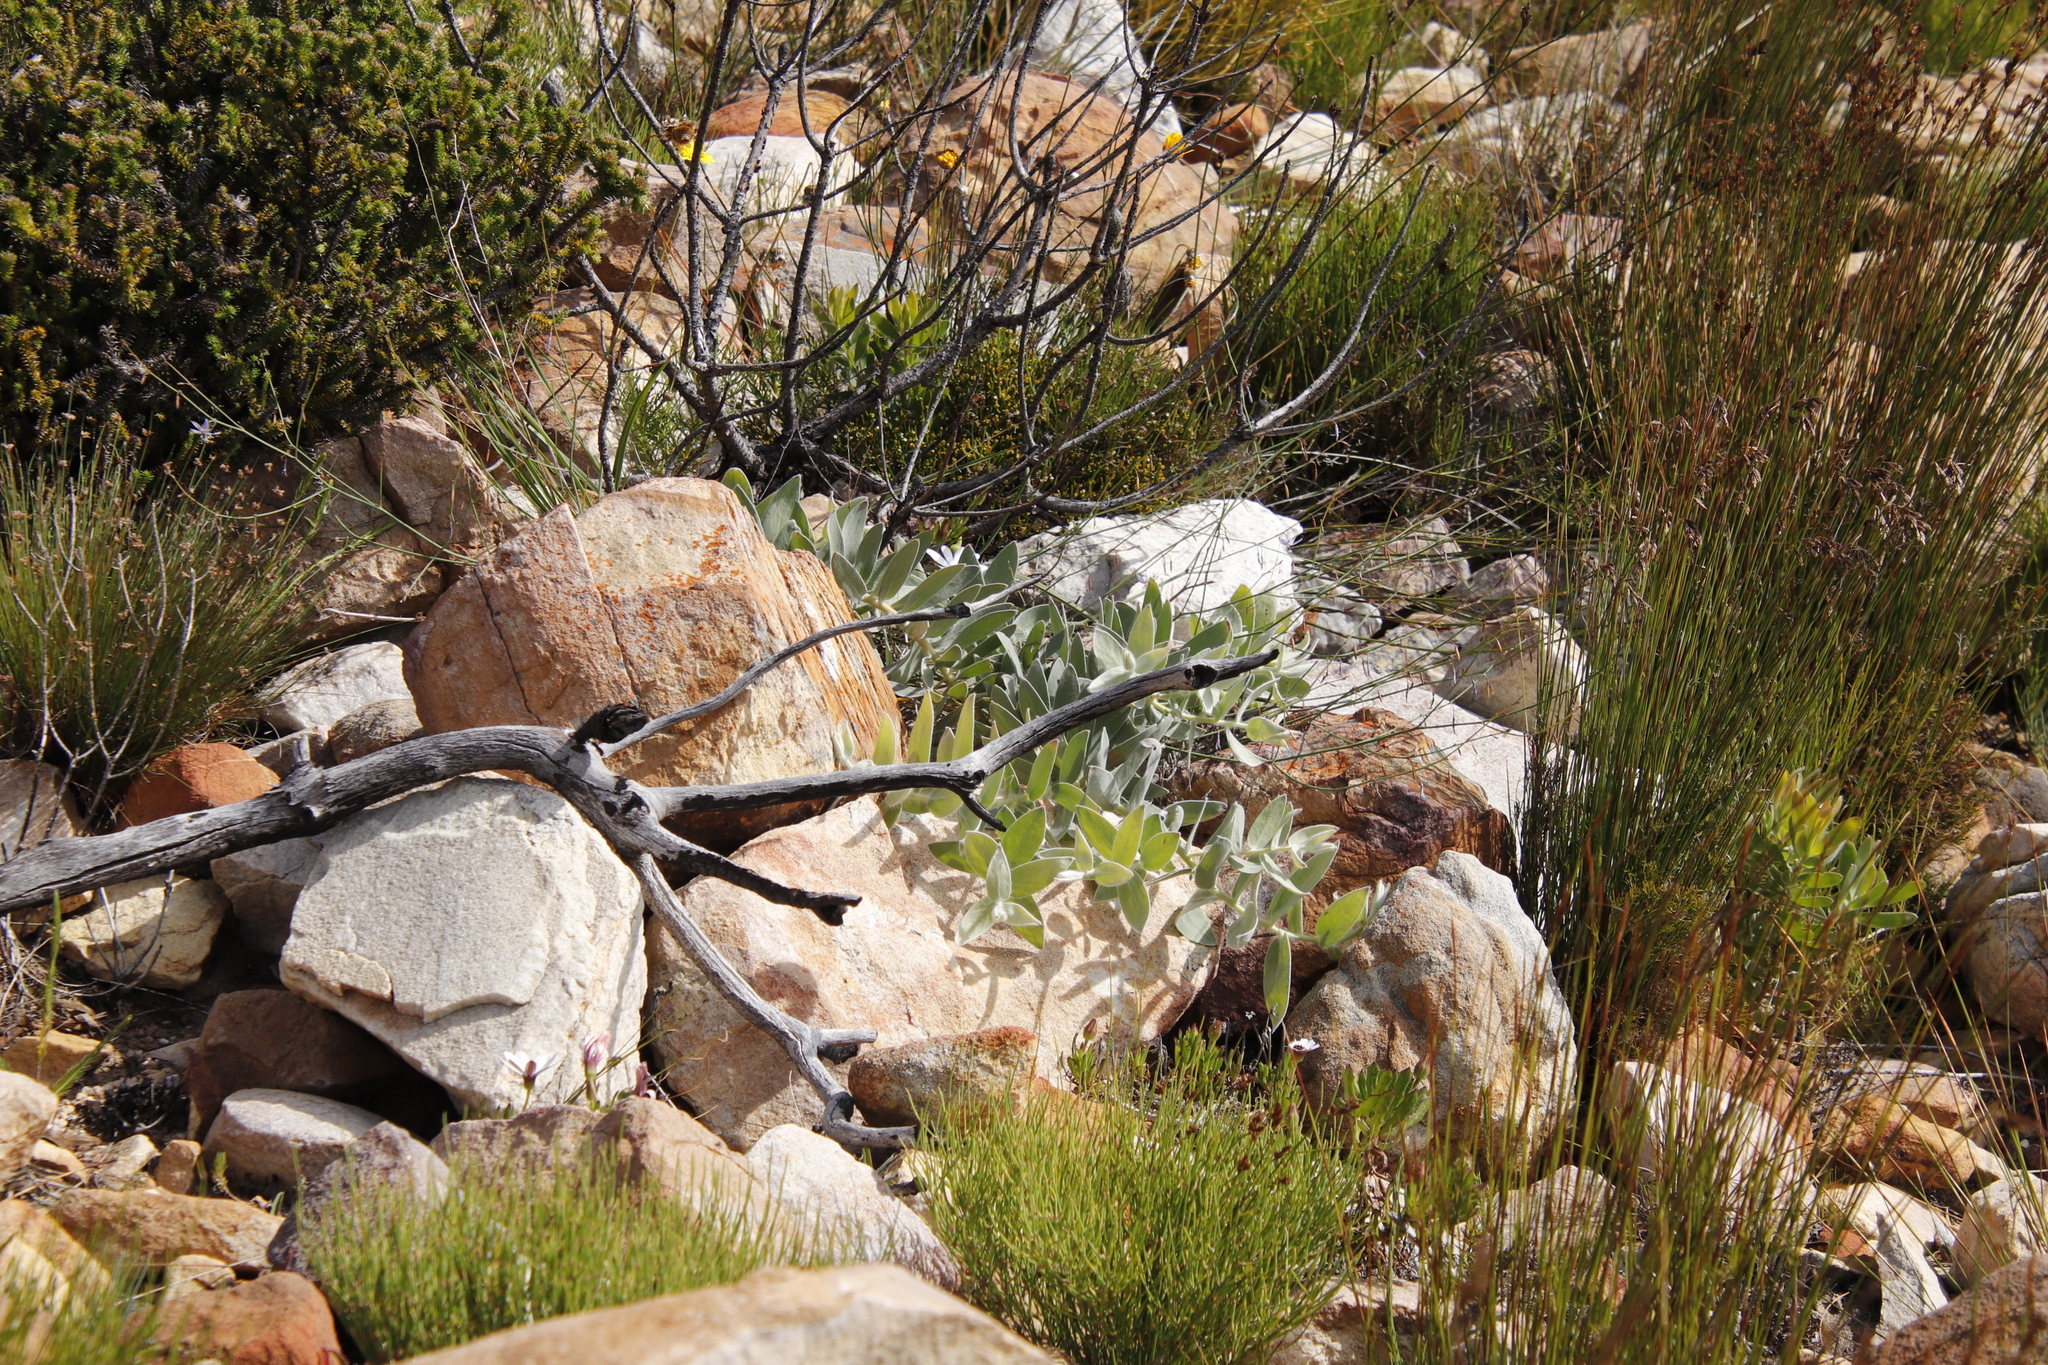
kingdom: Plantae
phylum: Tracheophyta
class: Magnoliopsida
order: Proteales
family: Proteaceae
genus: Leucospermum
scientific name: Leucospermum cordatum
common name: Heart-leaf pincushion
